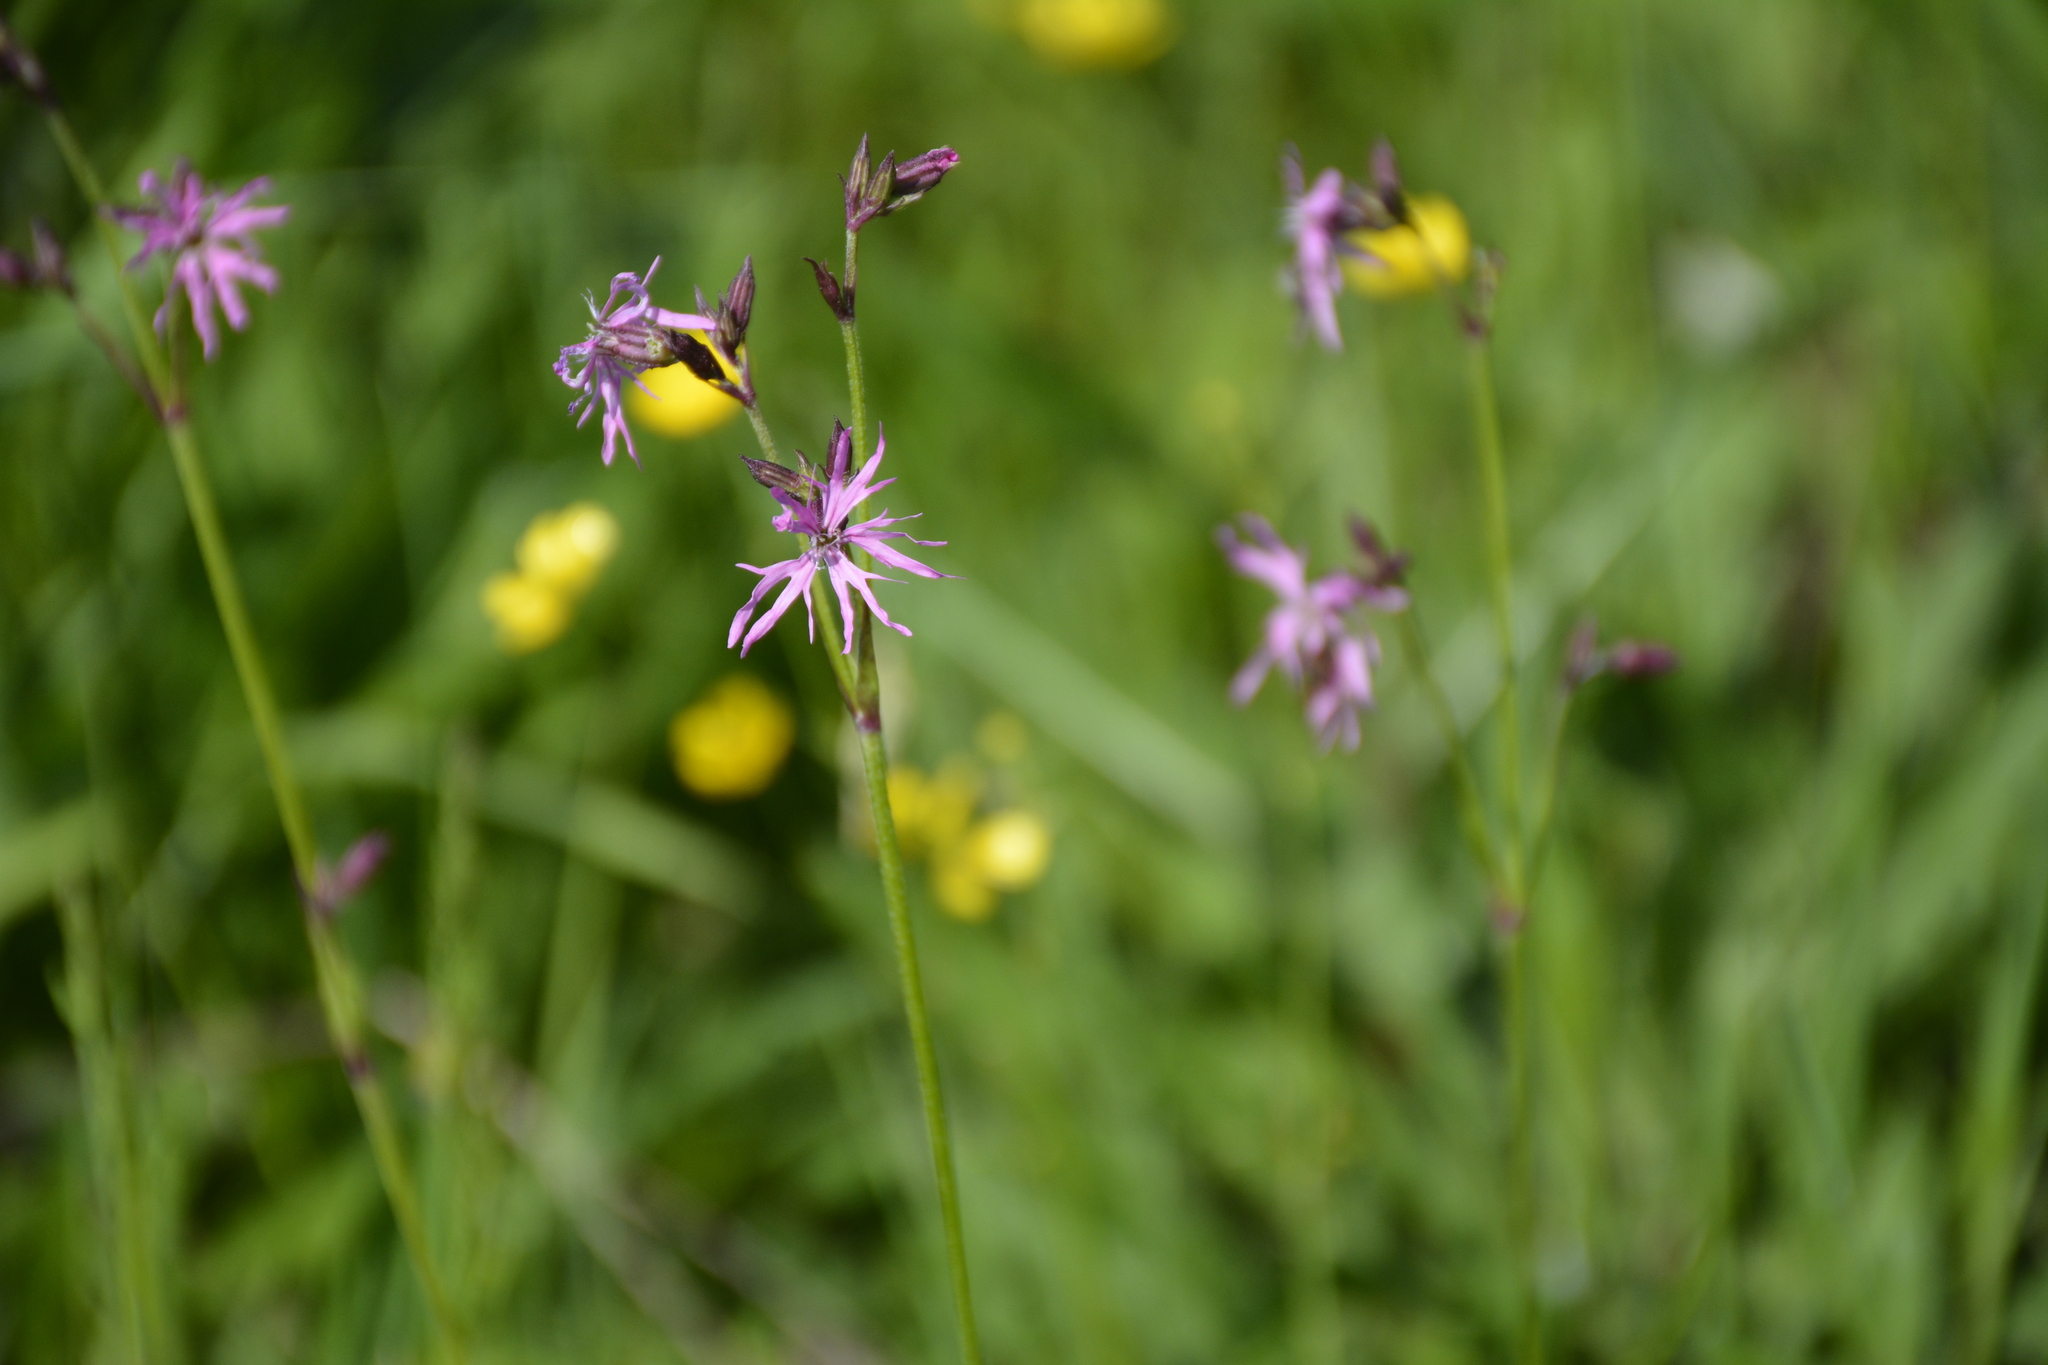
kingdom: Plantae
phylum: Tracheophyta
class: Magnoliopsida
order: Caryophyllales
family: Caryophyllaceae
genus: Silene
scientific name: Silene flos-cuculi
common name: Ragged-robin
